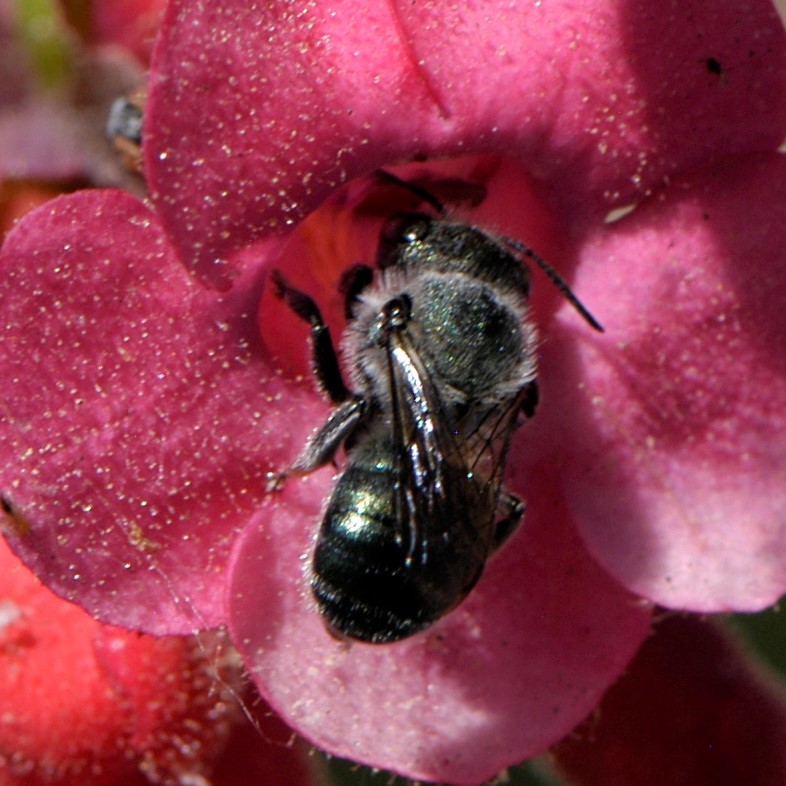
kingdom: Animalia
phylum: Arthropoda
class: Insecta
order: Hymenoptera
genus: Melanosmia
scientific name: Melanosmia
